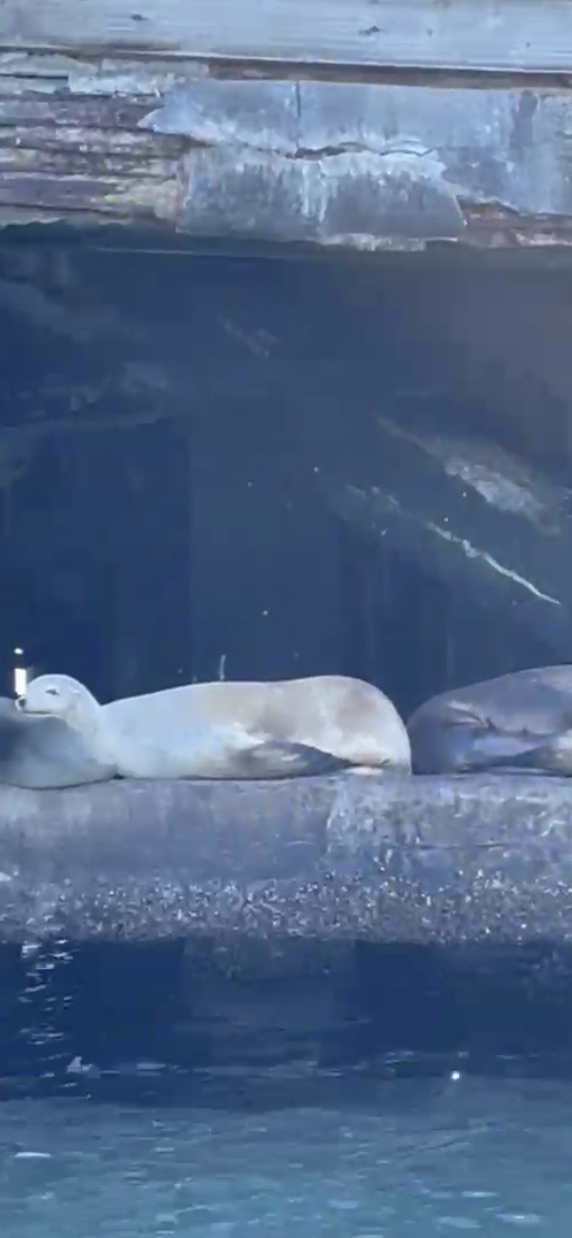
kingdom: Animalia
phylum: Chordata
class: Mammalia
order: Carnivora
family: Otariidae
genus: Zalophus
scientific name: Zalophus californianus
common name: California sea lion
